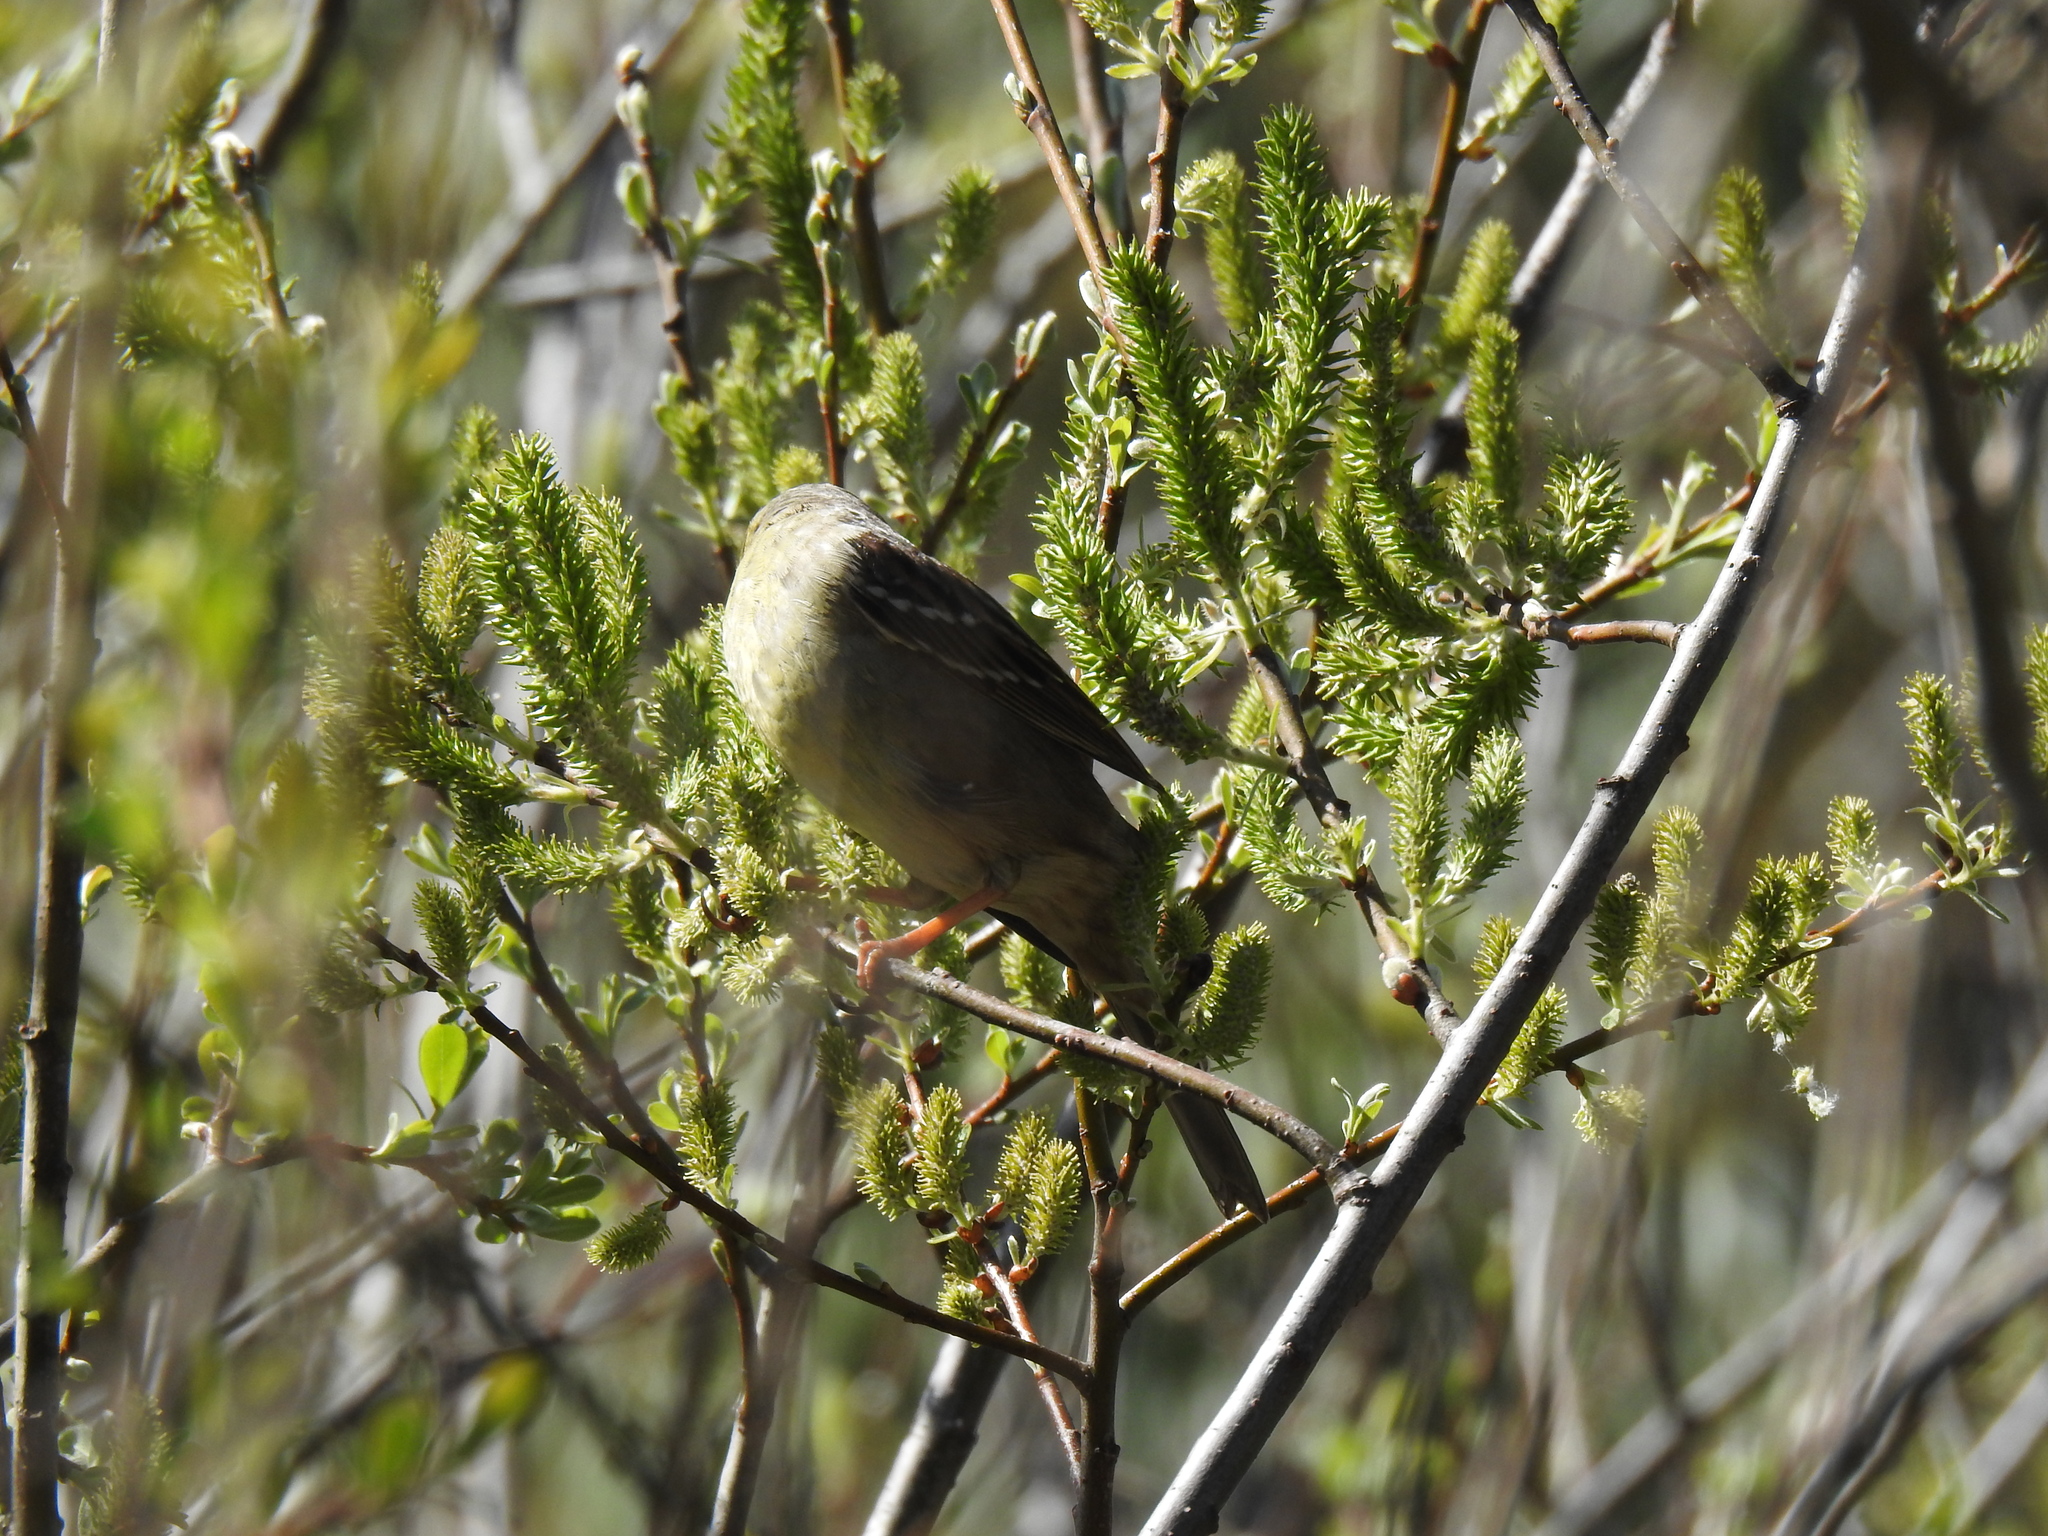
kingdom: Animalia
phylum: Chordata
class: Aves
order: Passeriformes
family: Passerellidae
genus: Zonotrichia
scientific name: Zonotrichia atricapilla
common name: Golden-crowned sparrow
